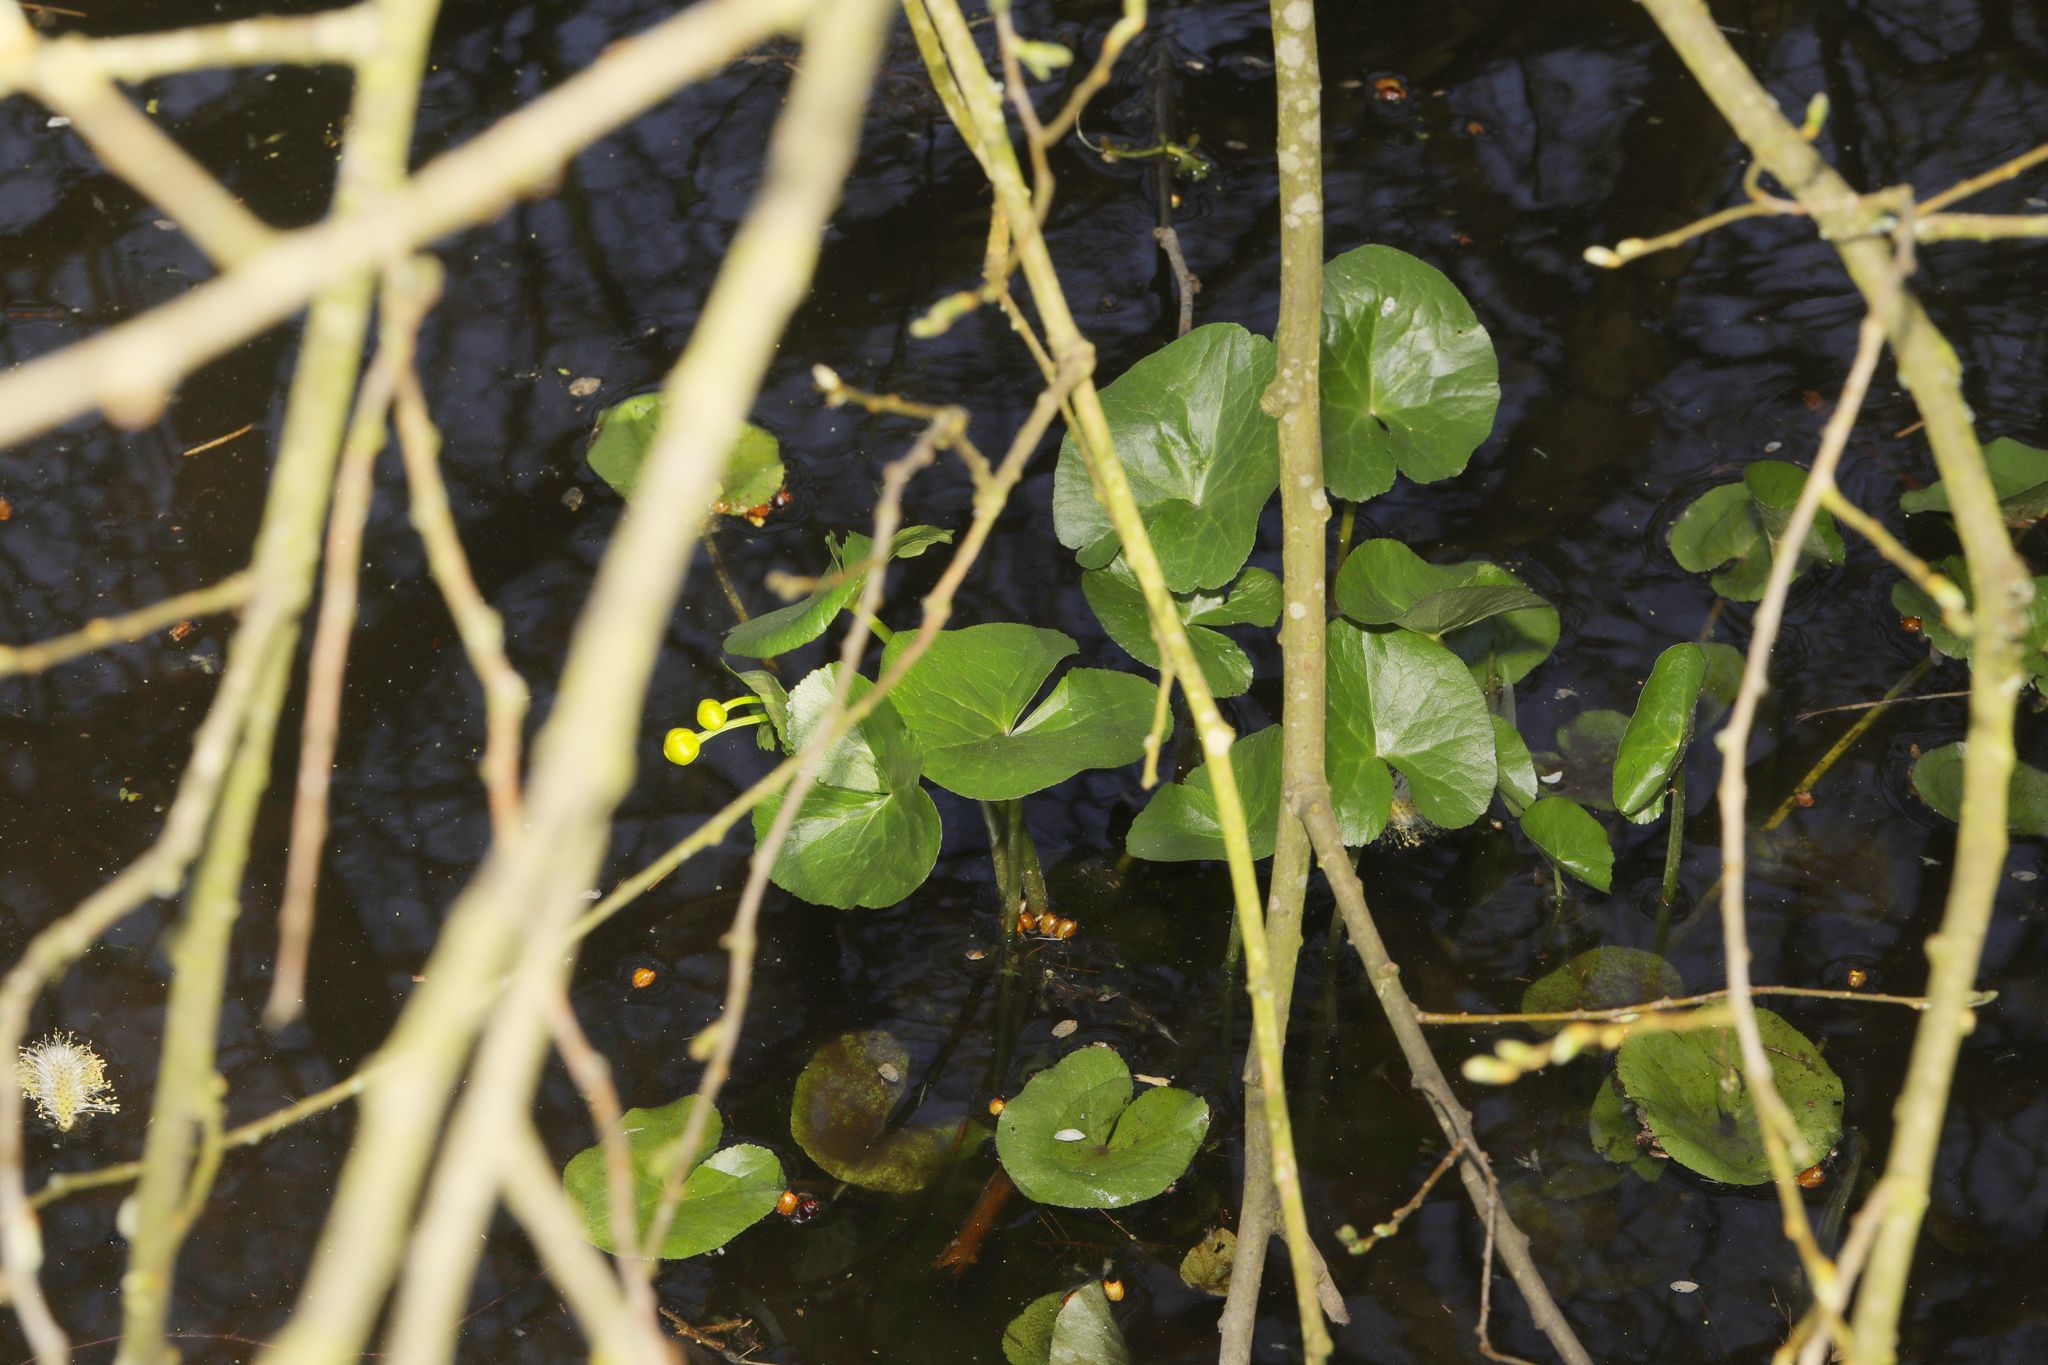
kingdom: Plantae
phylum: Tracheophyta
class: Magnoliopsida
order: Ranunculales
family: Ranunculaceae
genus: Caltha
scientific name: Caltha palustris
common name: Marsh marigold
